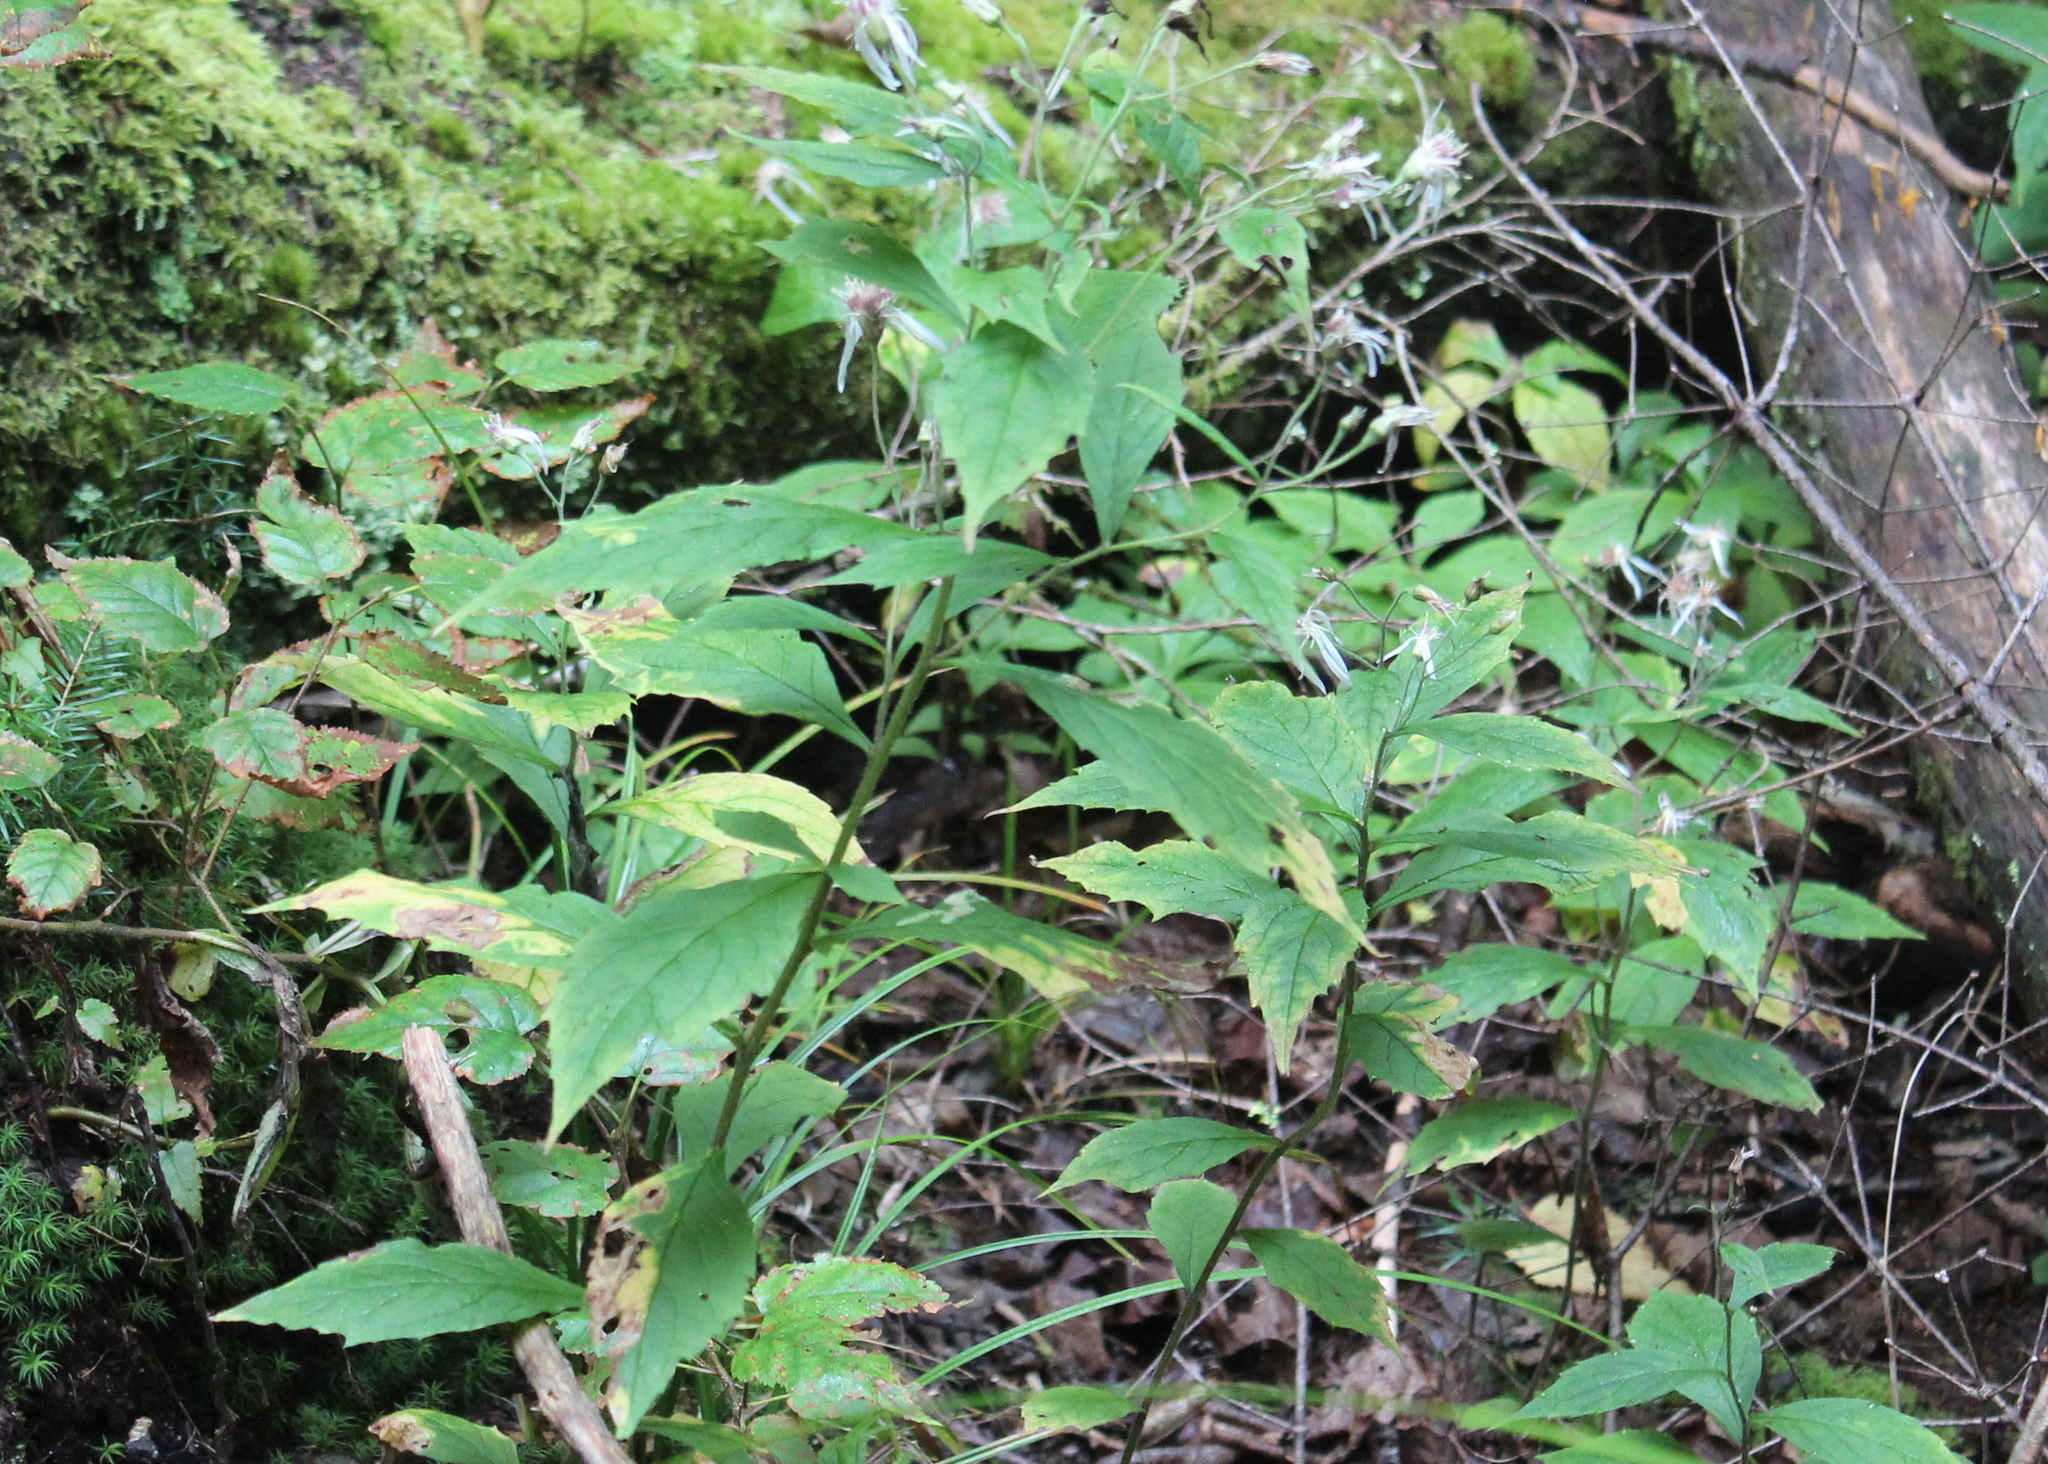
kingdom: Plantae
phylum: Tracheophyta
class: Magnoliopsida
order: Asterales
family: Asteraceae
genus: Oclemena
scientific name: Oclemena acuminata
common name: Mountain aster
